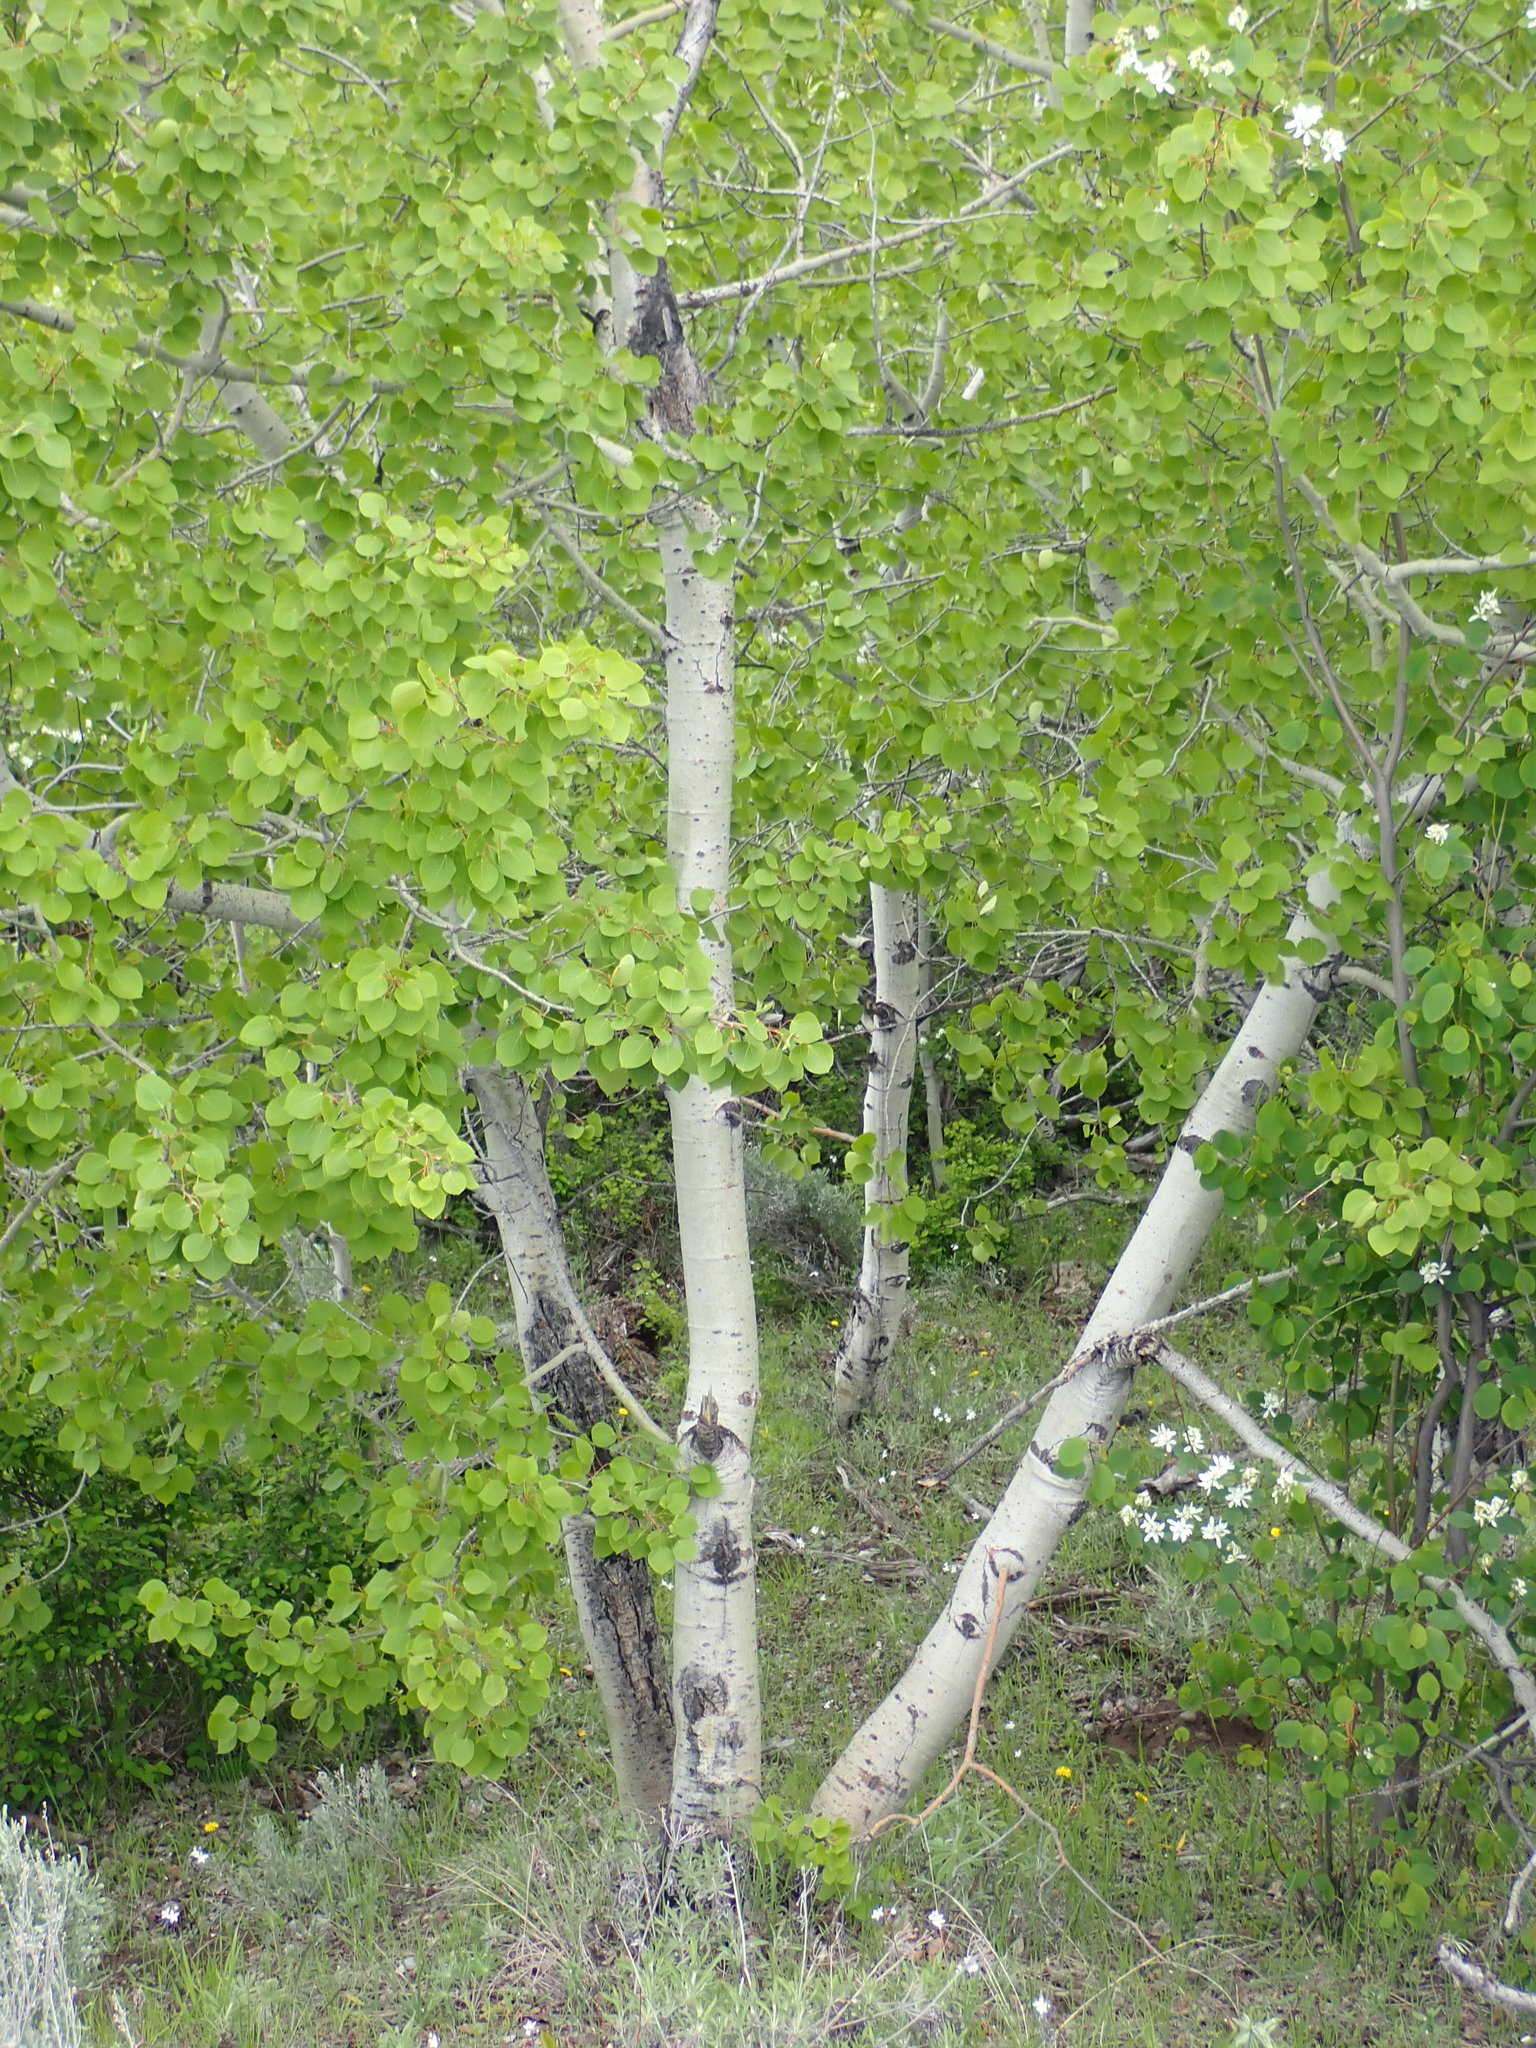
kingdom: Plantae
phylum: Tracheophyta
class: Magnoliopsida
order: Malpighiales
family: Salicaceae
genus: Populus
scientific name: Populus tremuloides
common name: Quaking aspen
